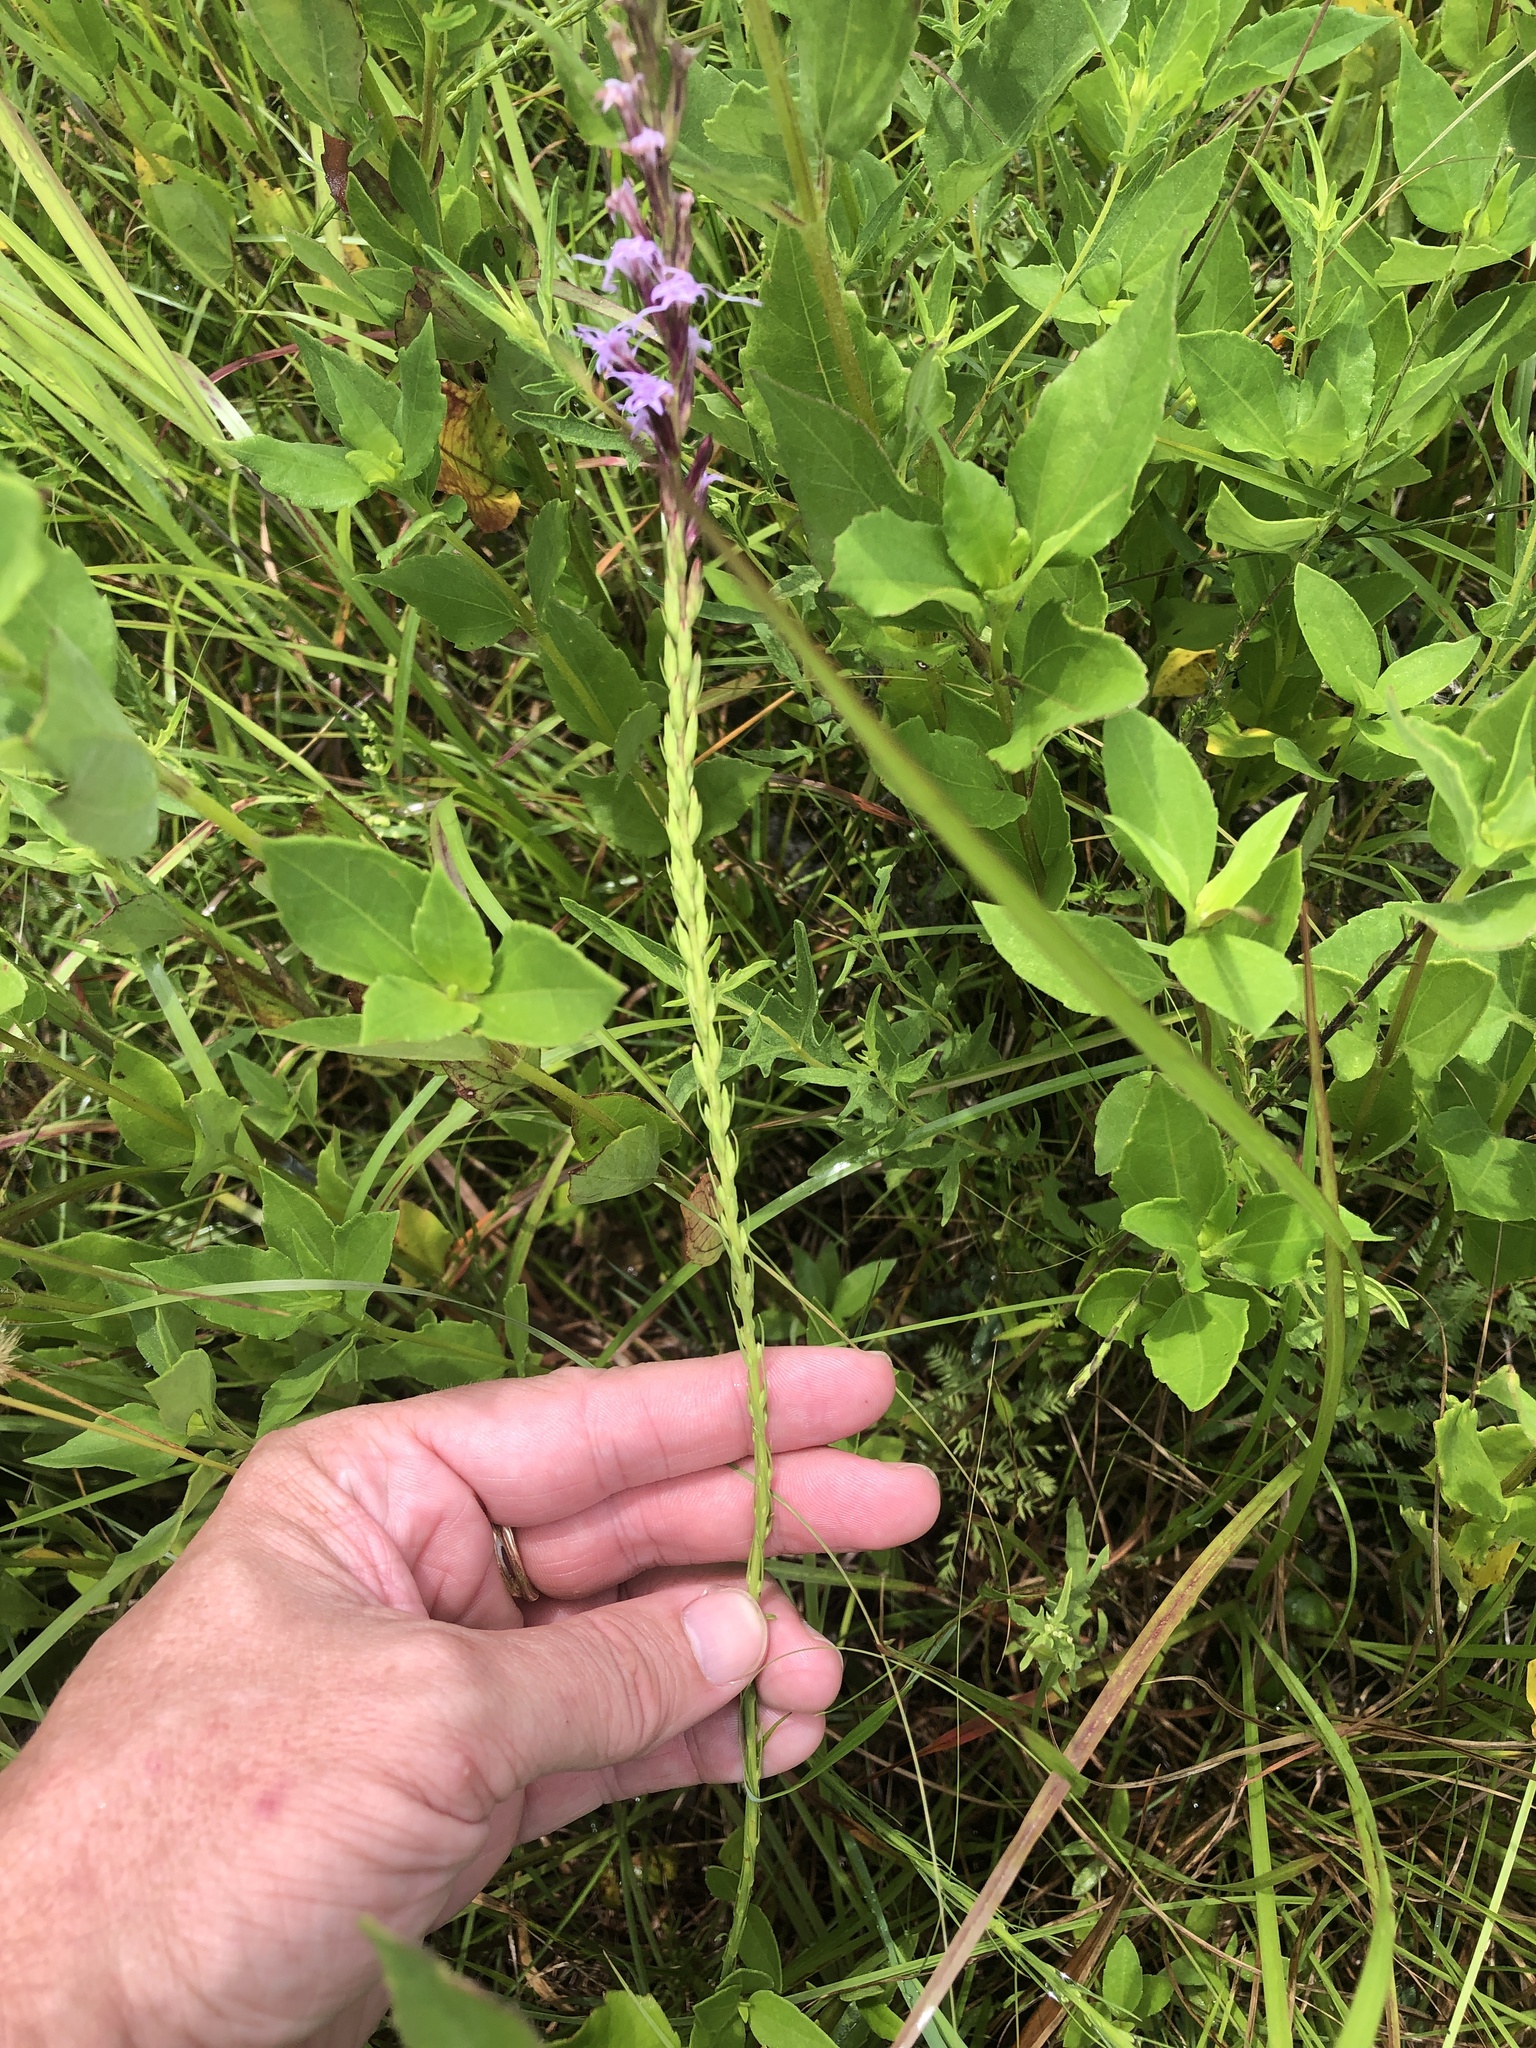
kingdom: Plantae
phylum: Tracheophyta
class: Magnoliopsida
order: Asterales
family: Asteraceae
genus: Liatris
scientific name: Liatris acidota
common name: Gulf coast gayfeather
